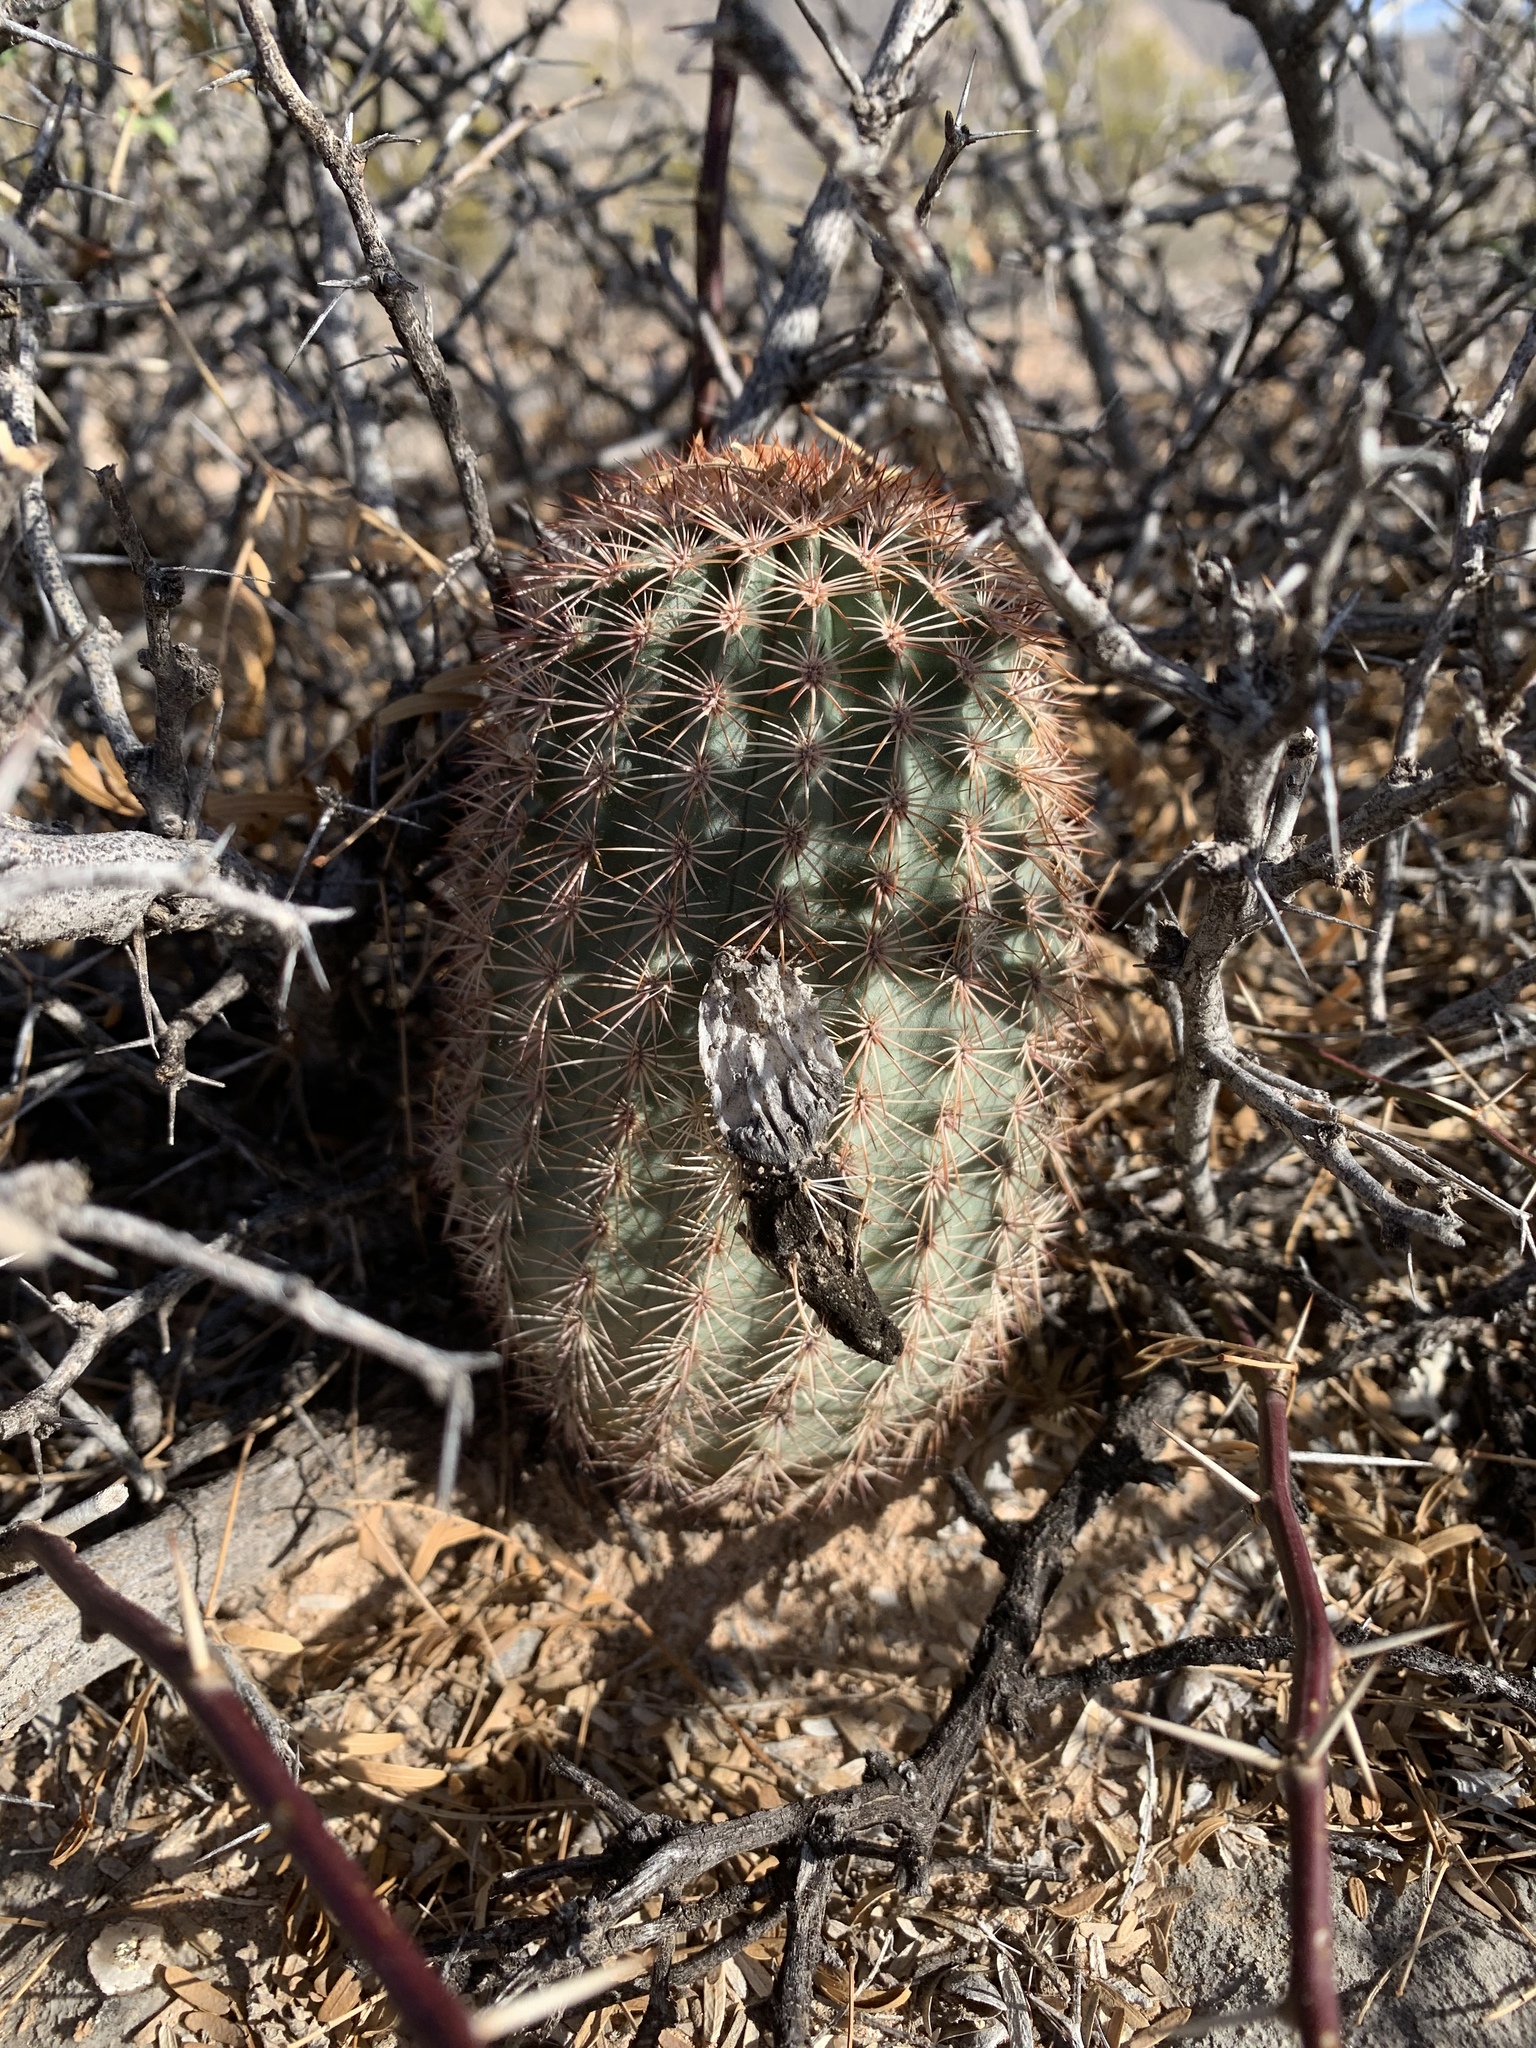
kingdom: Plantae
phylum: Tracheophyta
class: Magnoliopsida
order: Caryophyllales
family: Cactaceae
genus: Echinocereus
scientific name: Echinocereus dasyacanthus
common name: Spiny hedgehog cactus
